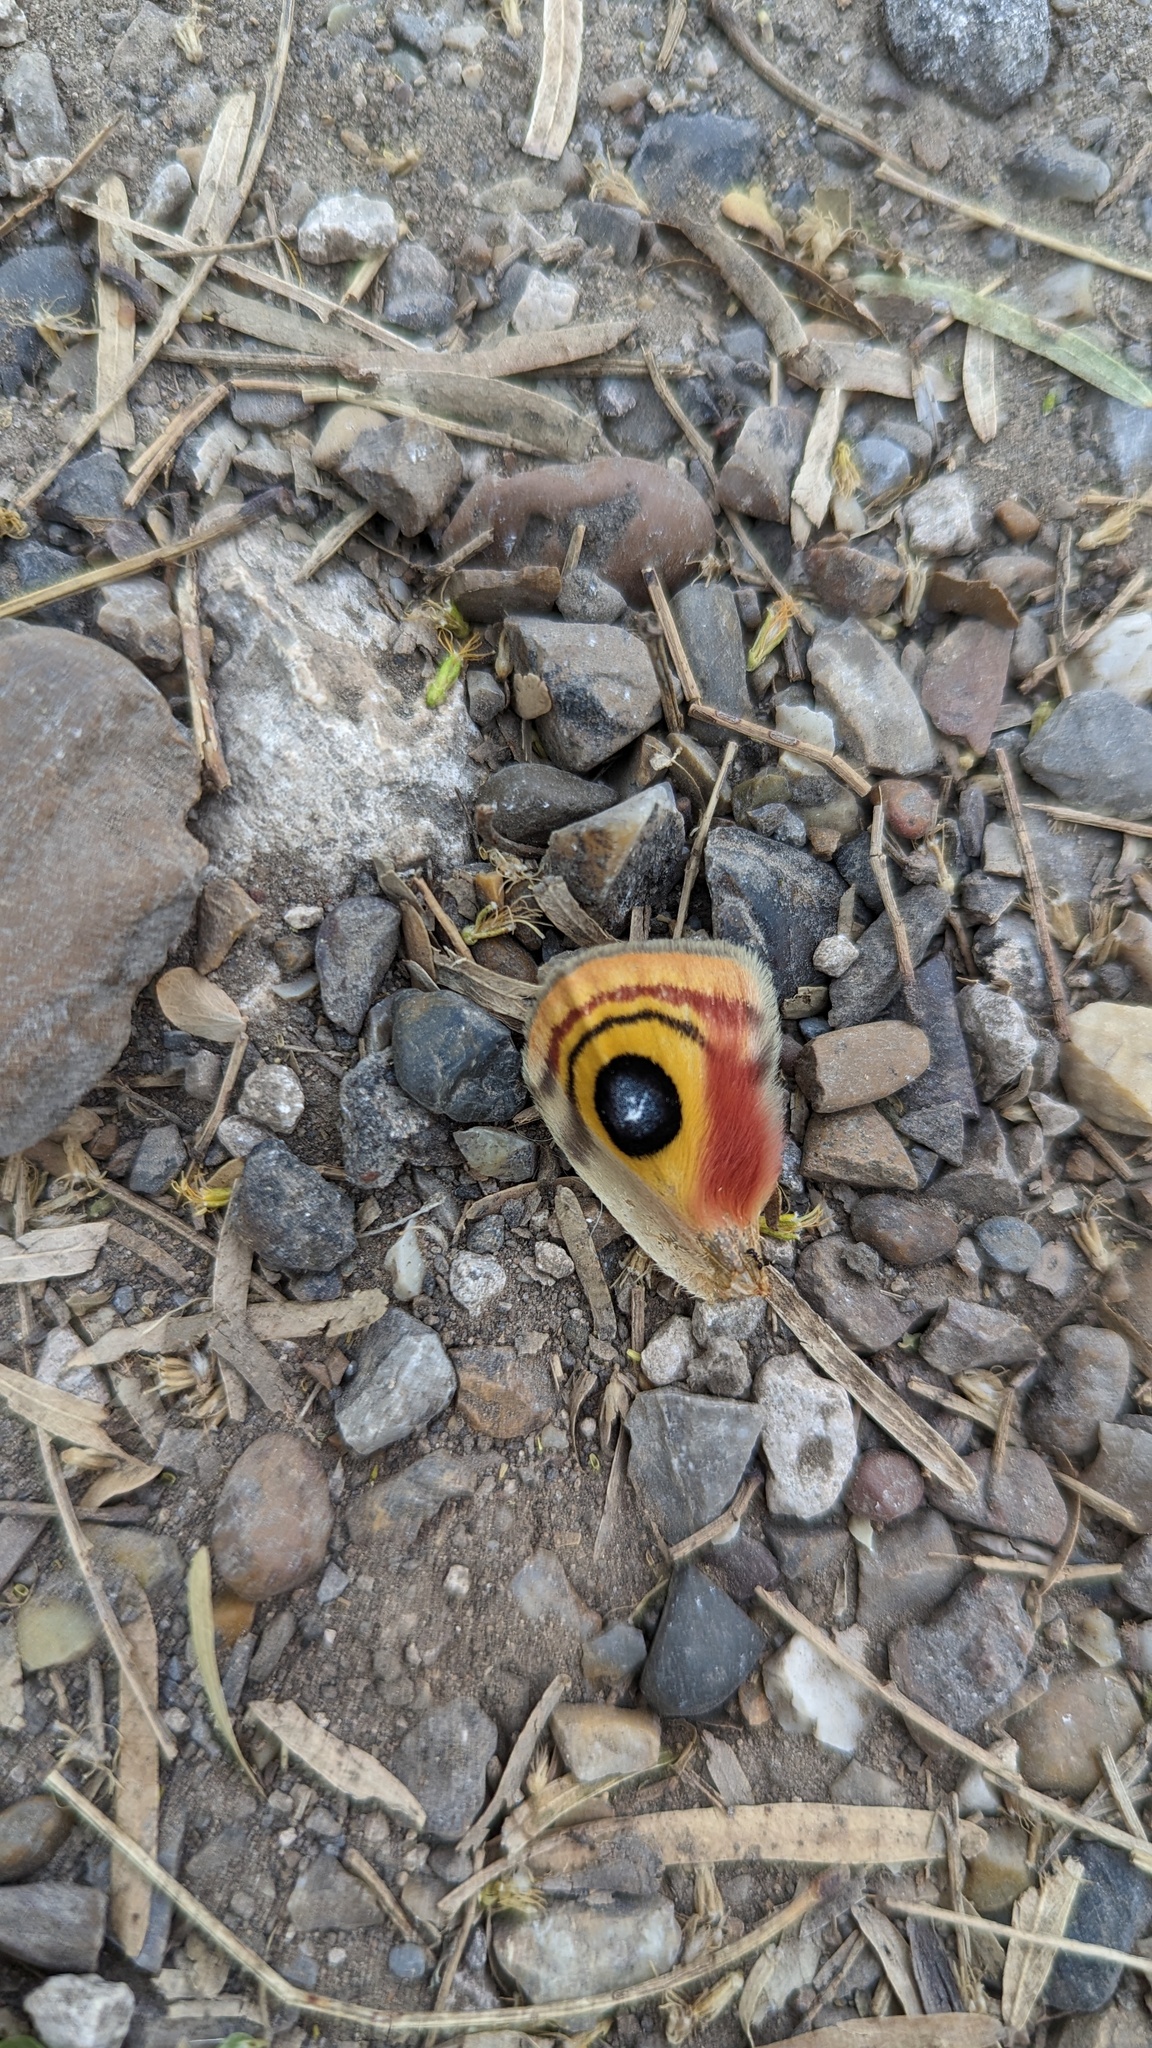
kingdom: Animalia
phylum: Arthropoda
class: Insecta
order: Lepidoptera
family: Saturniidae
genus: Automeris
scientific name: Automeris io
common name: Io moth
